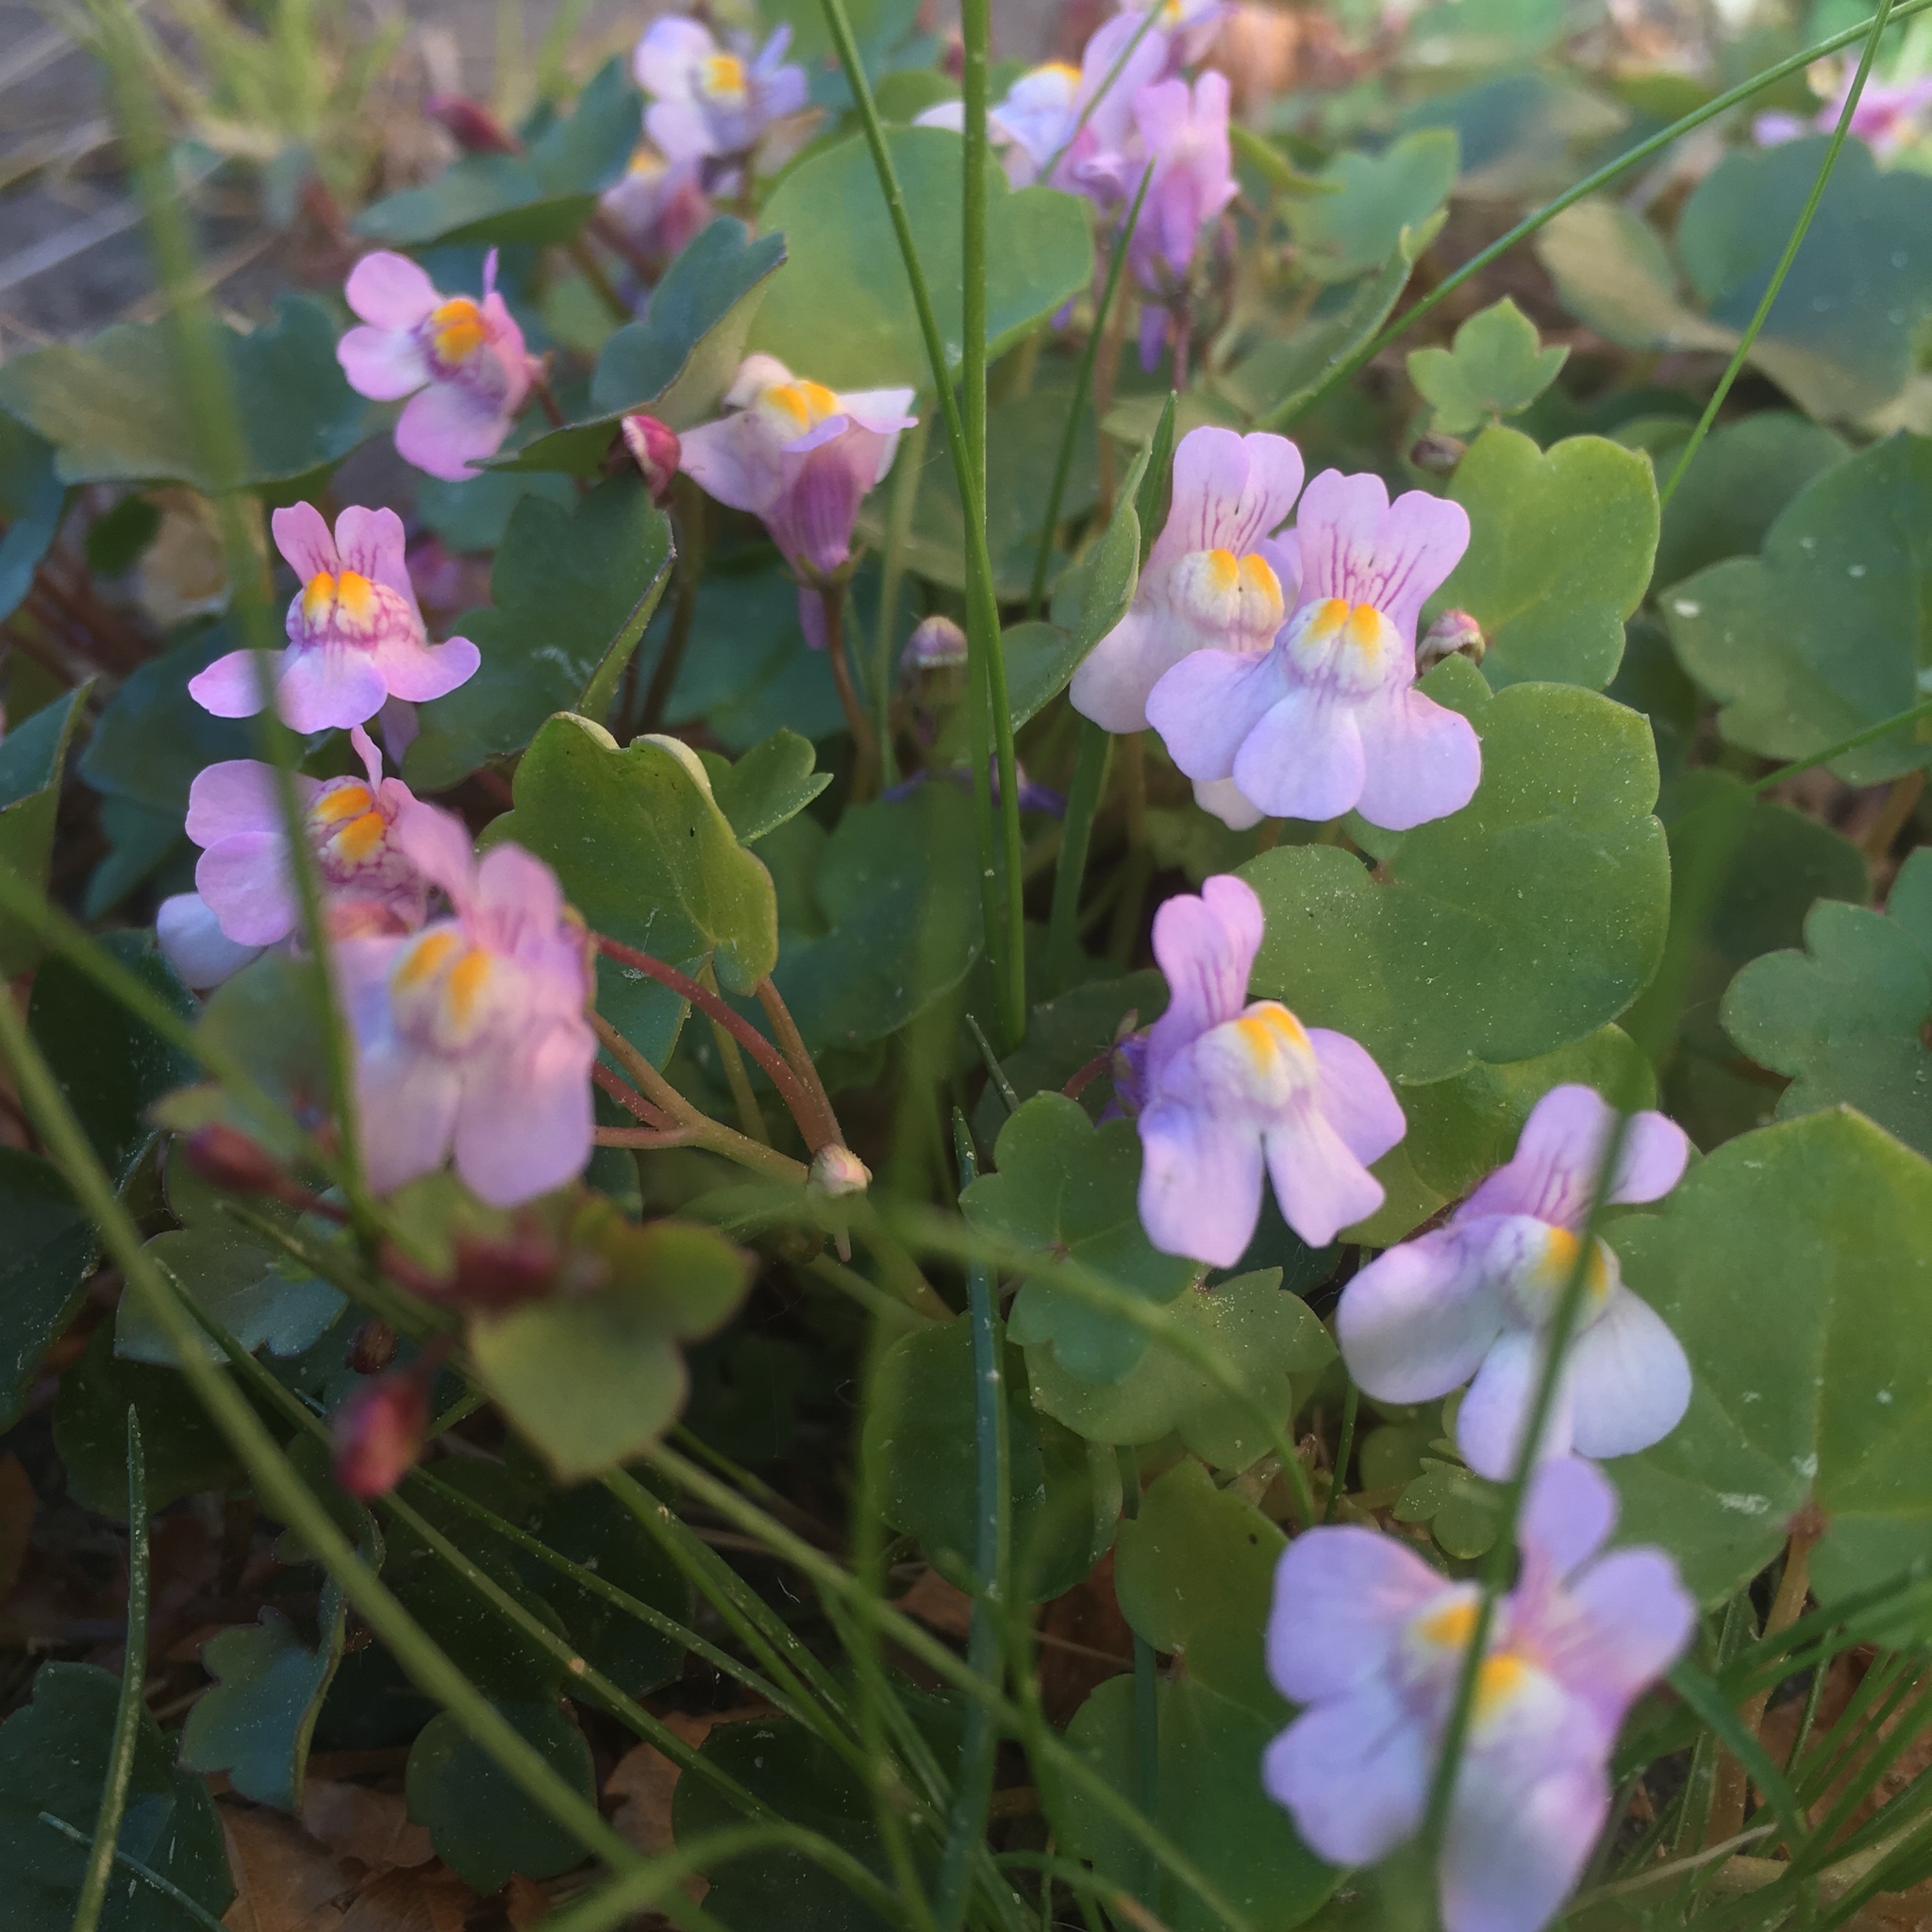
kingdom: Plantae
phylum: Tracheophyta
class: Magnoliopsida
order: Lamiales
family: Plantaginaceae
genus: Cymbalaria
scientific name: Cymbalaria muralis
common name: Ivy-leaved toadflax
